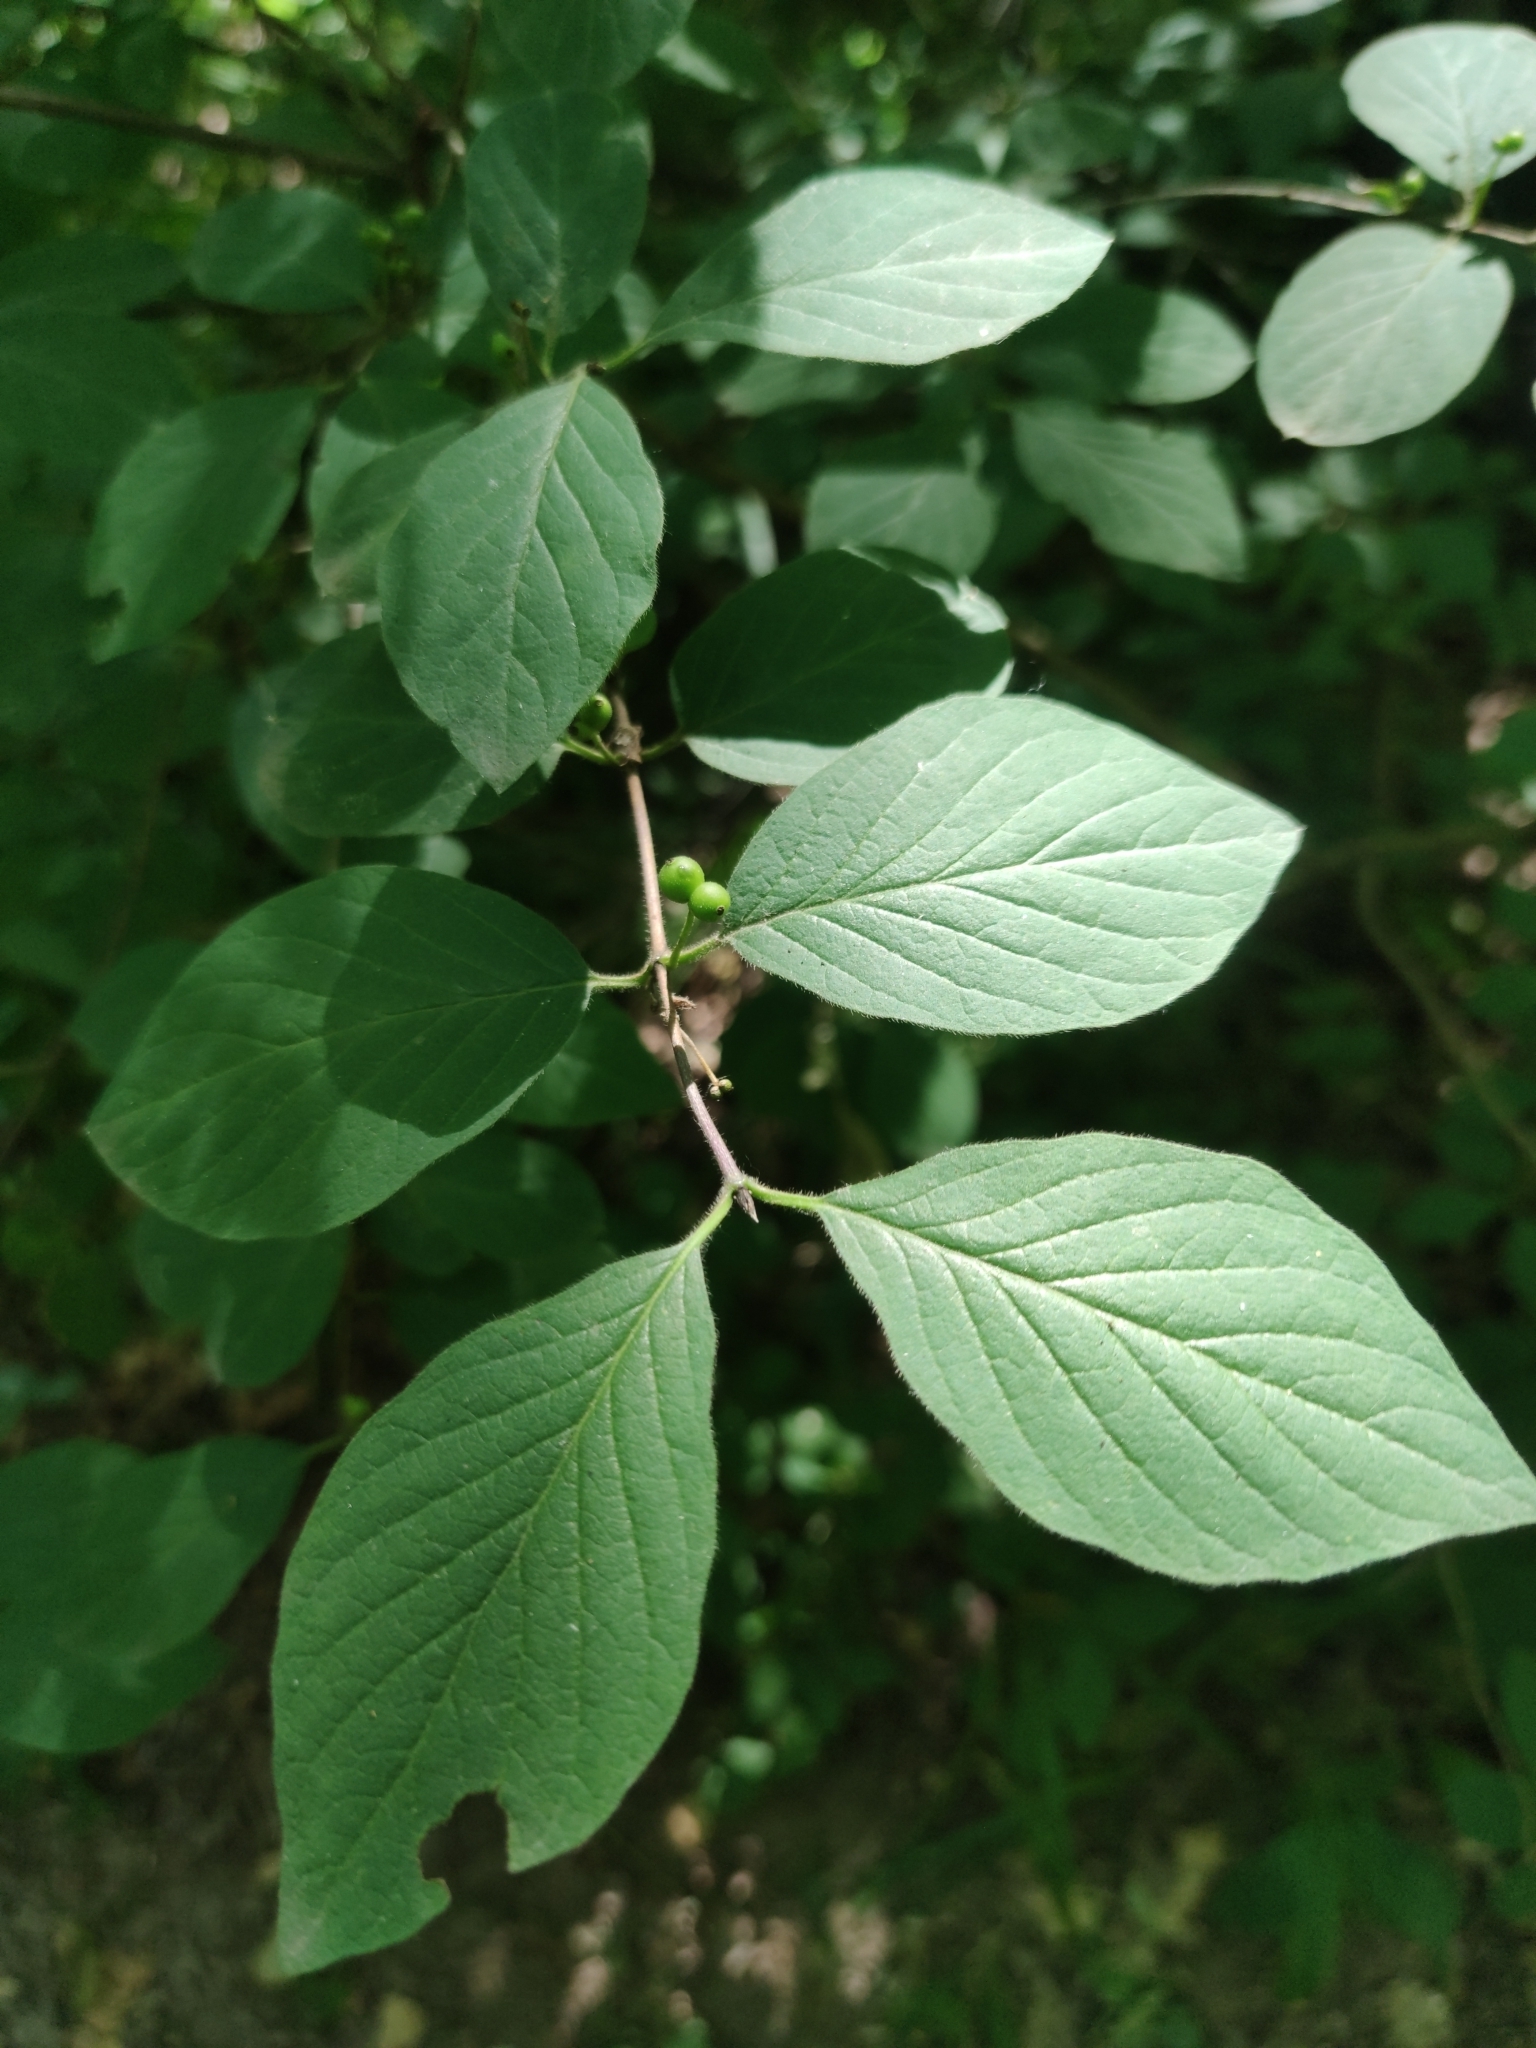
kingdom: Plantae
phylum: Tracheophyta
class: Magnoliopsida
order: Dipsacales
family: Caprifoliaceae
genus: Lonicera
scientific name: Lonicera xylosteum
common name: Fly honeysuckle
